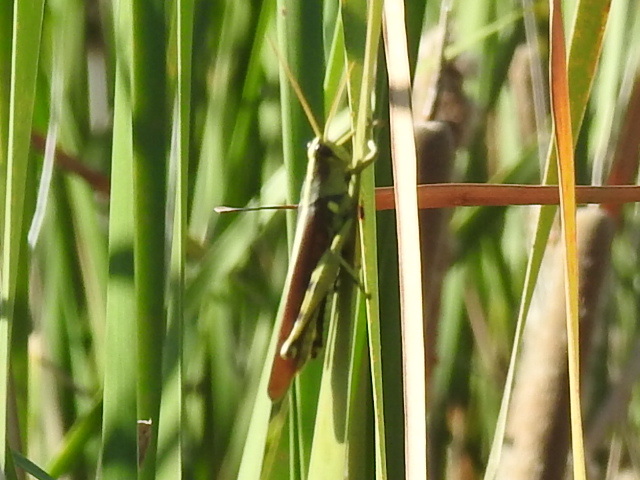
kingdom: Animalia
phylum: Arthropoda
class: Insecta
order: Orthoptera
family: Acrididae
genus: Schistocerca
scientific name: Schistocerca obscura
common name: Obscure bird grasshopper
